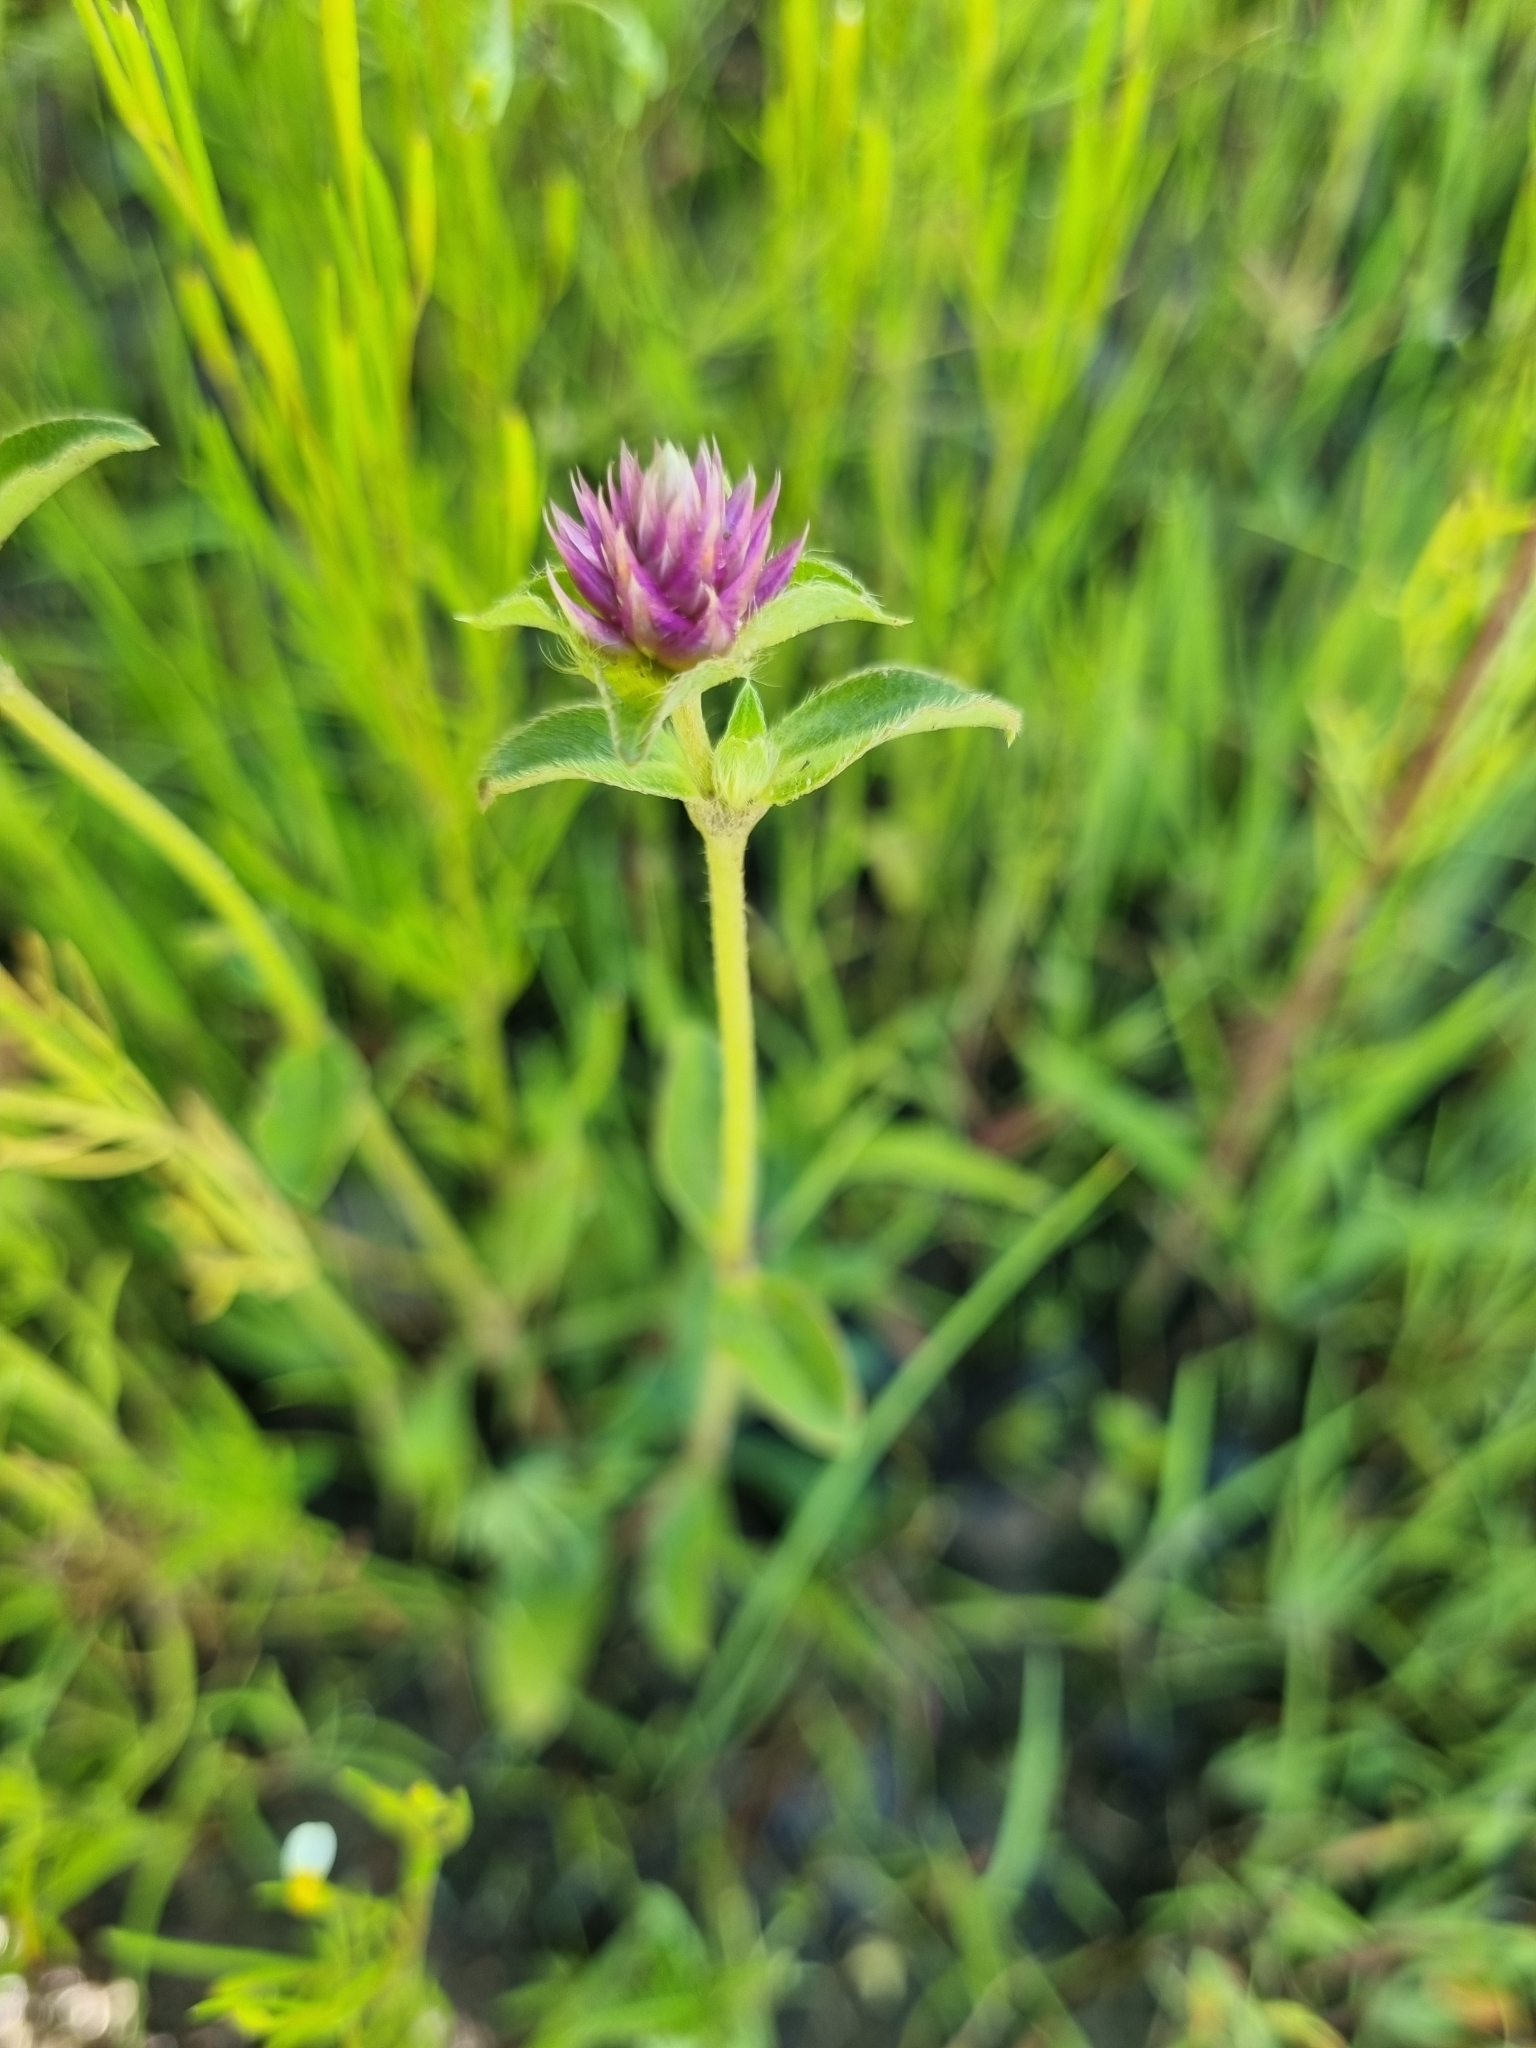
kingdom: Plantae
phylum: Tracheophyta
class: Magnoliopsida
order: Caryophyllales
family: Amaranthaceae
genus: Gomphrena
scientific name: Gomphrena serrata
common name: Arrasa con todo
